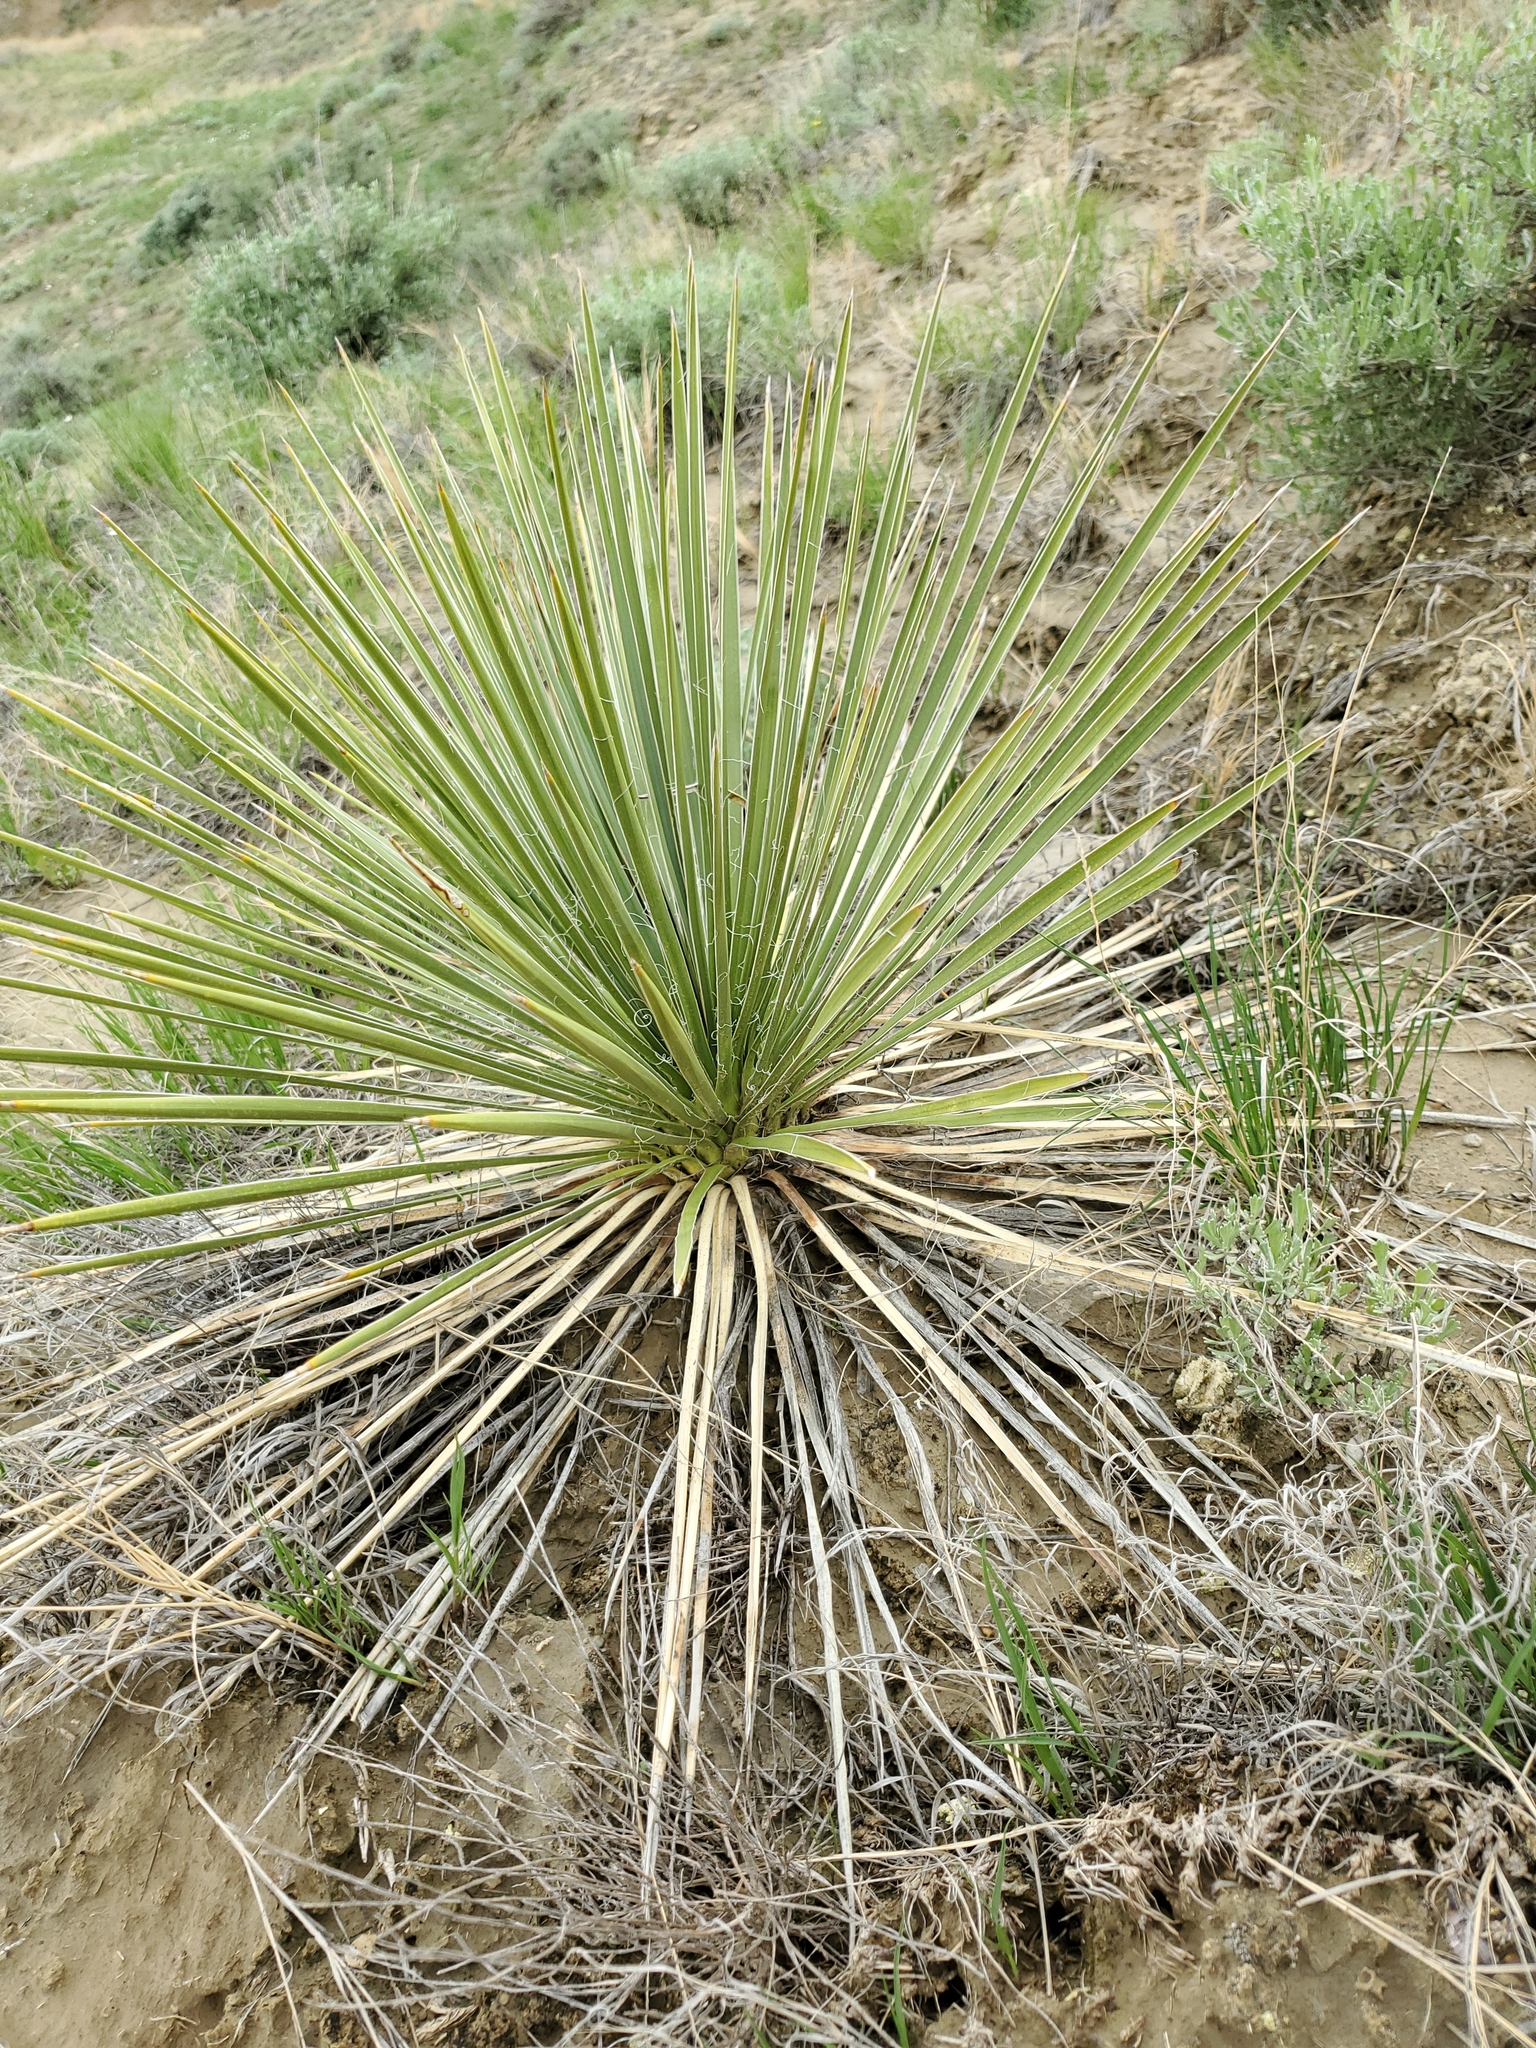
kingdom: Plantae
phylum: Tracheophyta
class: Liliopsida
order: Asparagales
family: Asparagaceae
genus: Yucca
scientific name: Yucca glauca
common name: Great plains yucca
